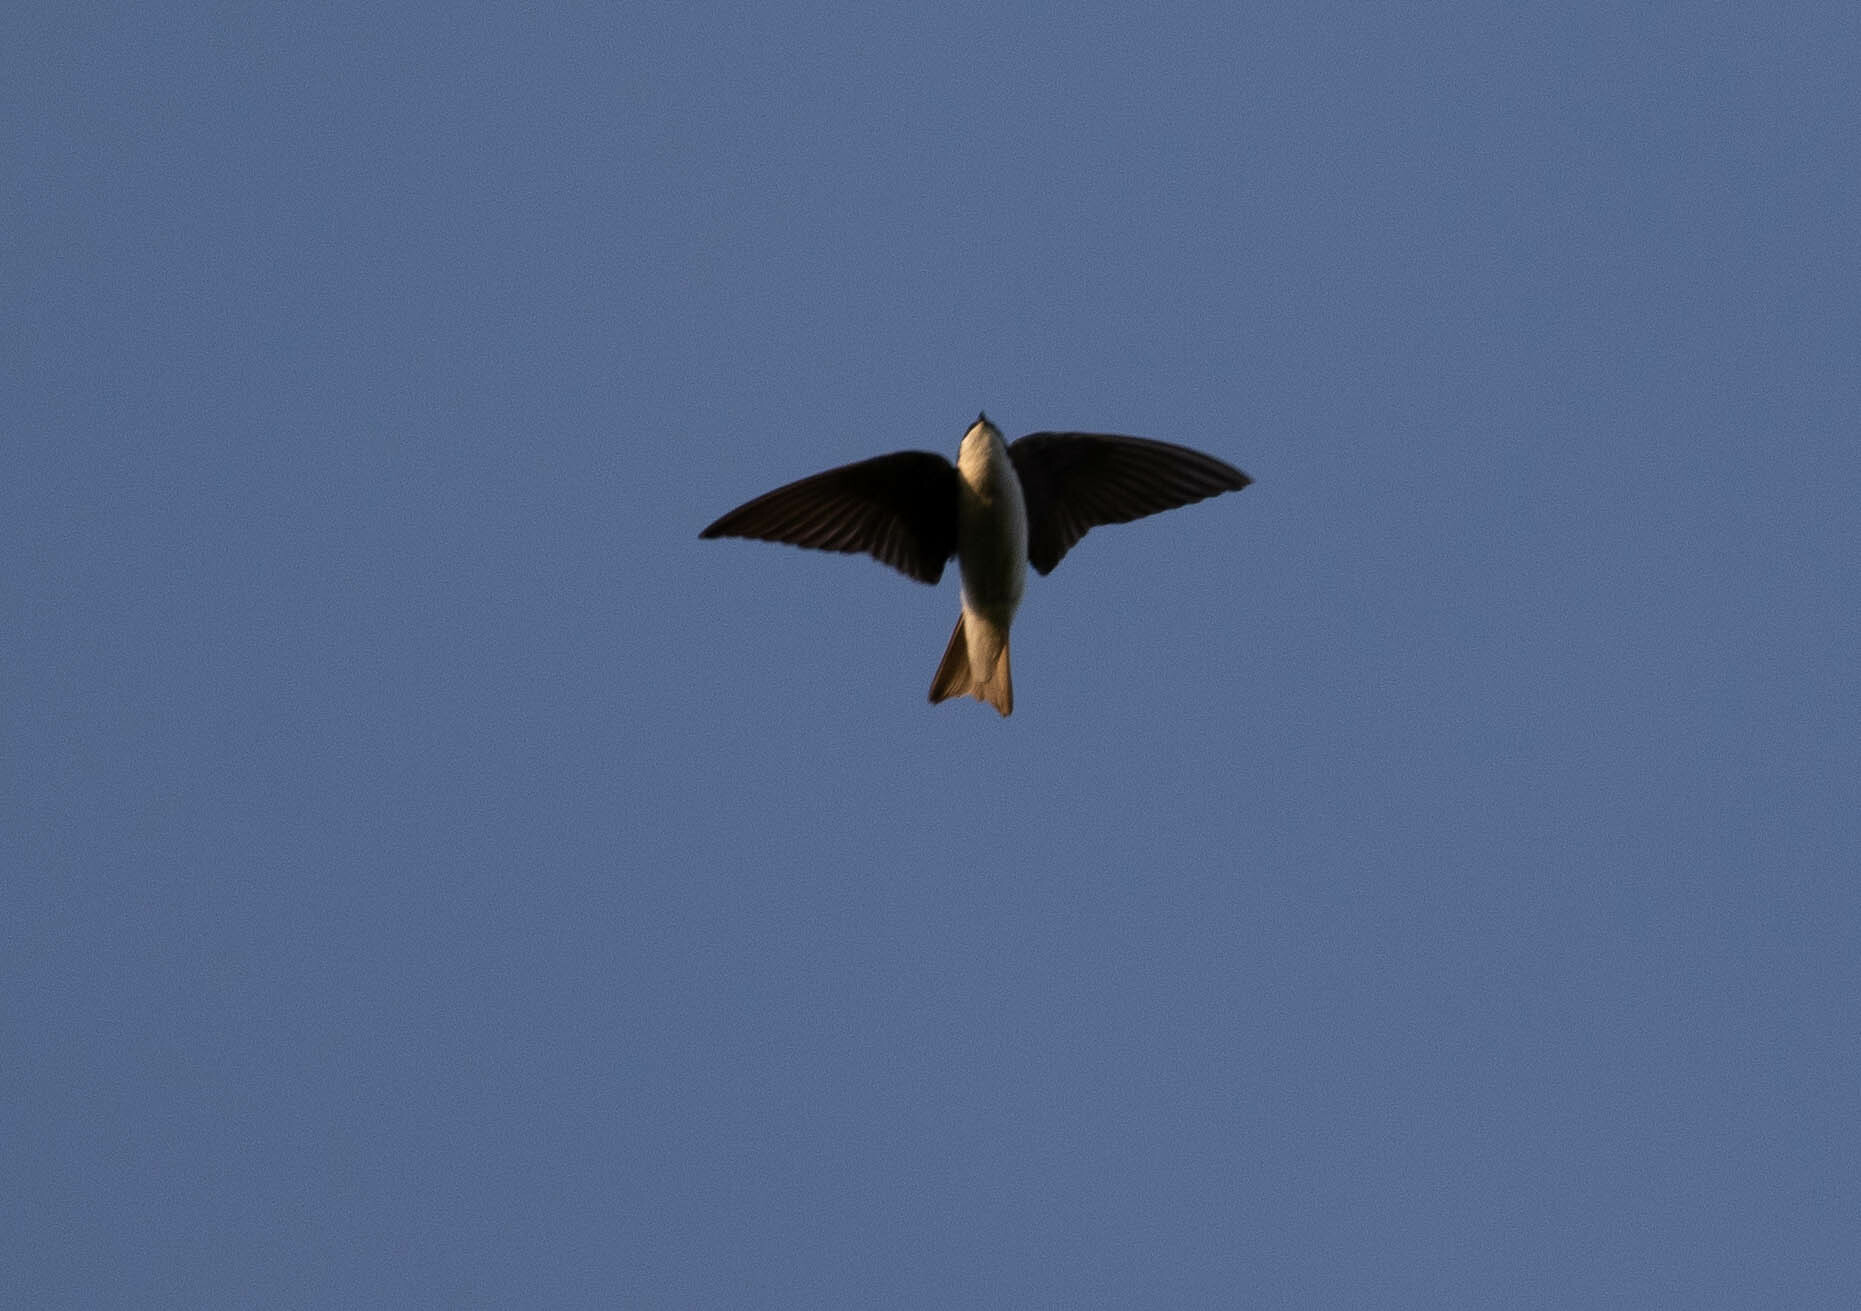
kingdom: Animalia
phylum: Chordata
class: Aves
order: Passeriformes
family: Hirundinidae
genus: Tachycineta
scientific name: Tachycineta bicolor
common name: Tree swallow
